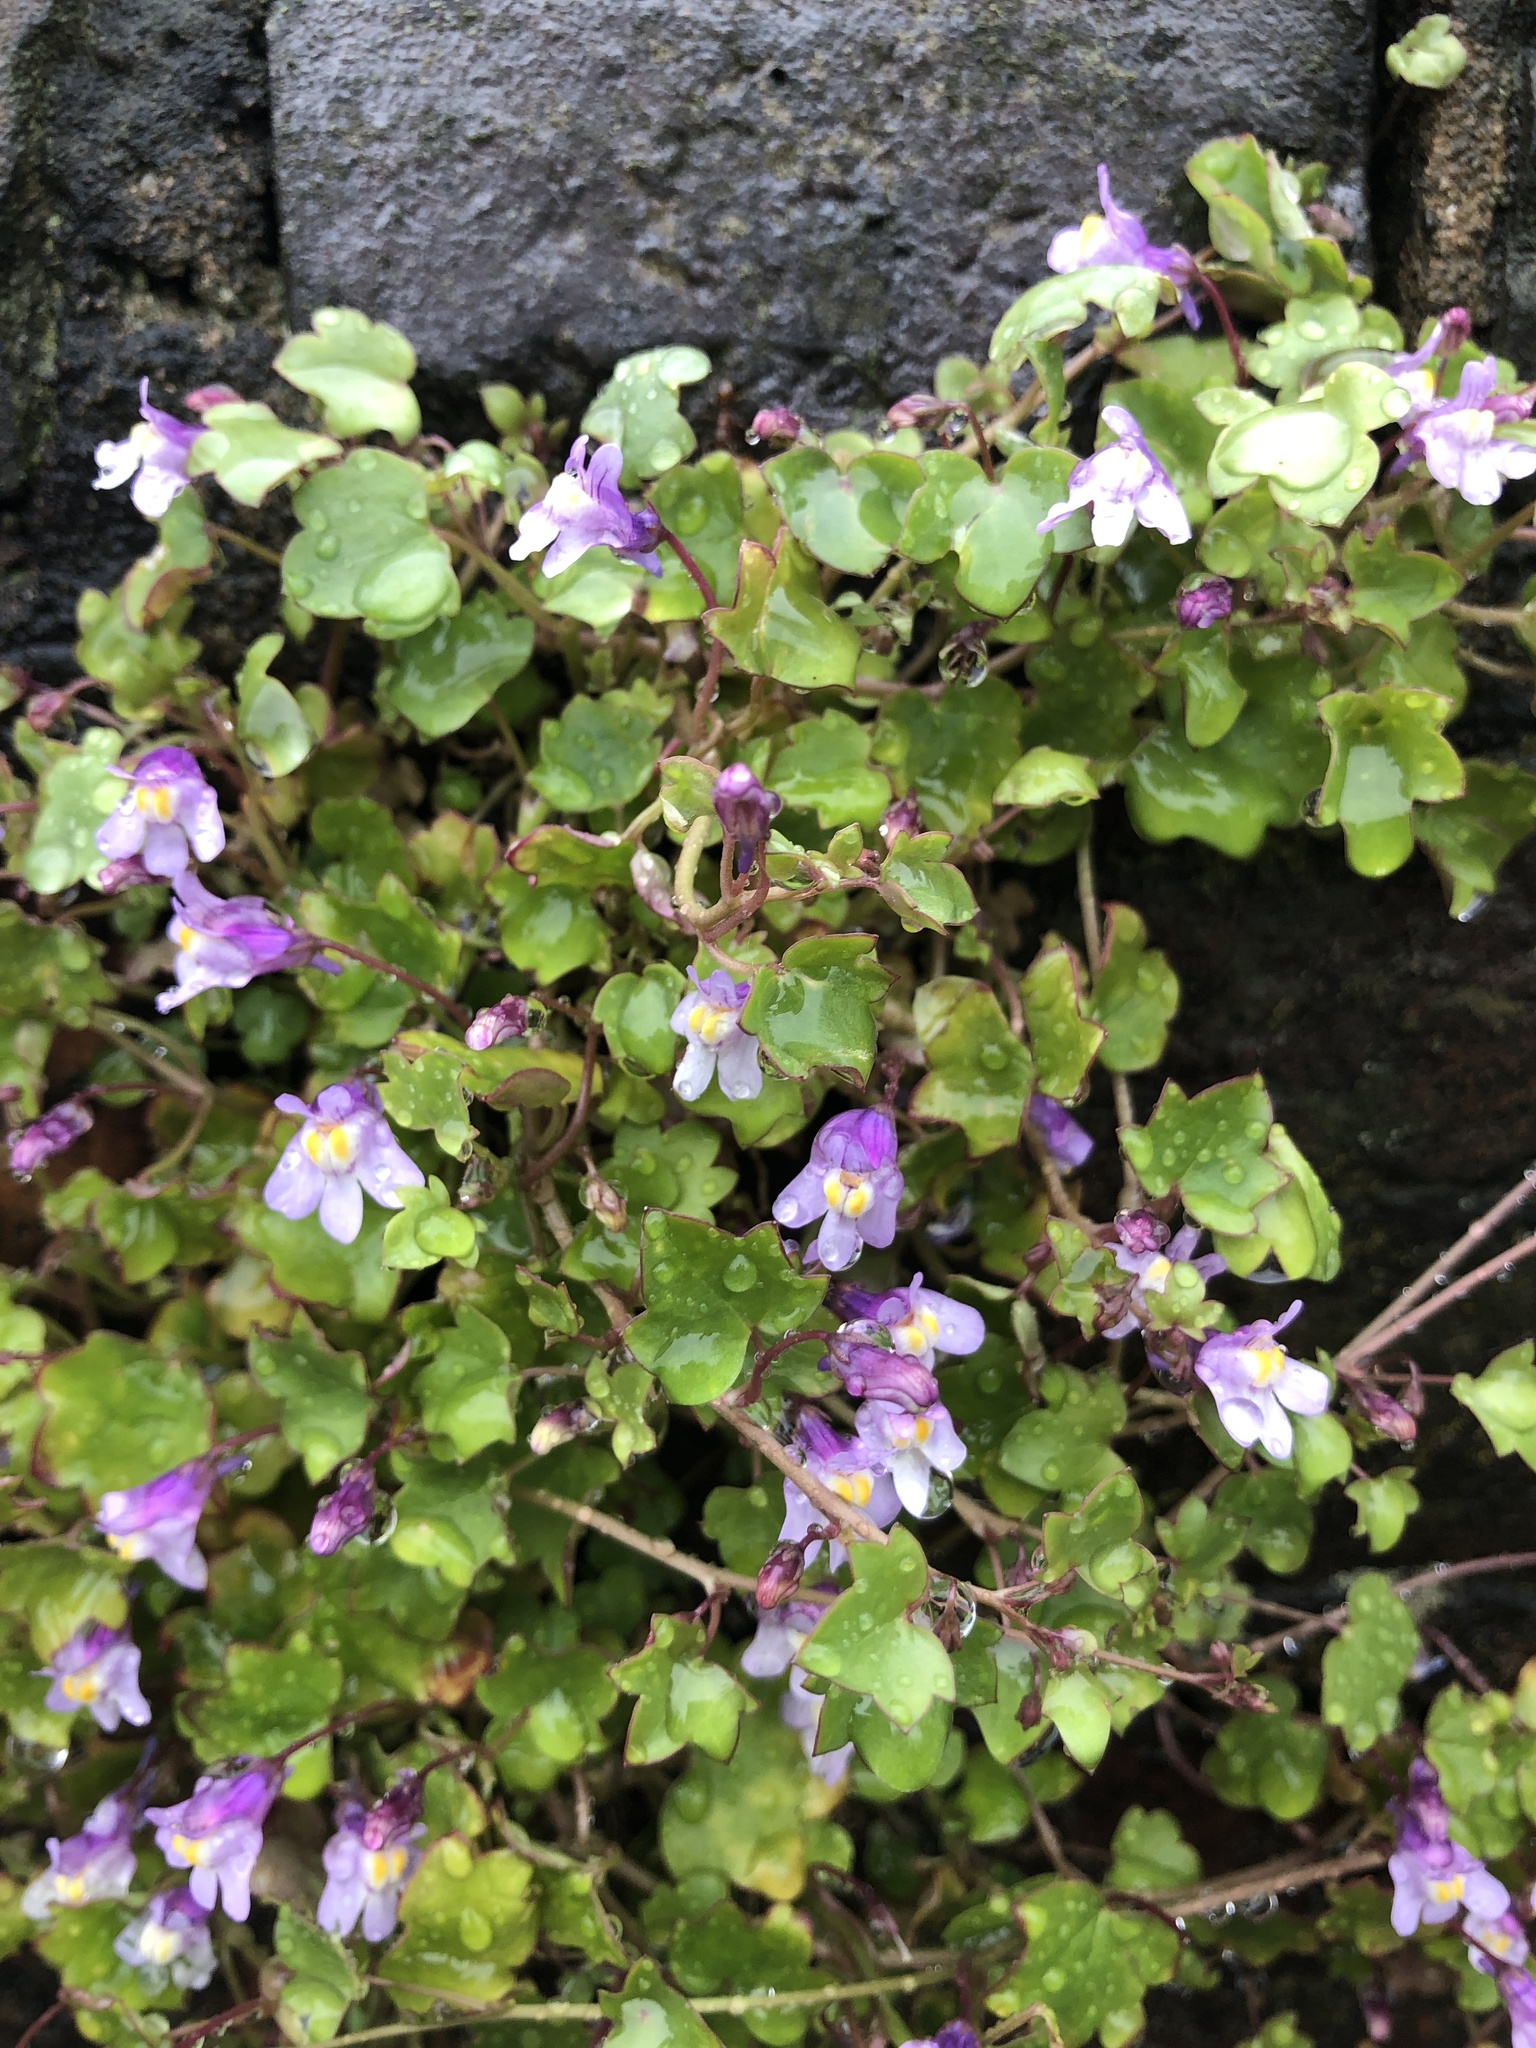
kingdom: Plantae
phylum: Tracheophyta
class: Magnoliopsida
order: Lamiales
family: Plantaginaceae
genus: Cymbalaria
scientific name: Cymbalaria muralis
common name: Ivy-leaved toadflax
